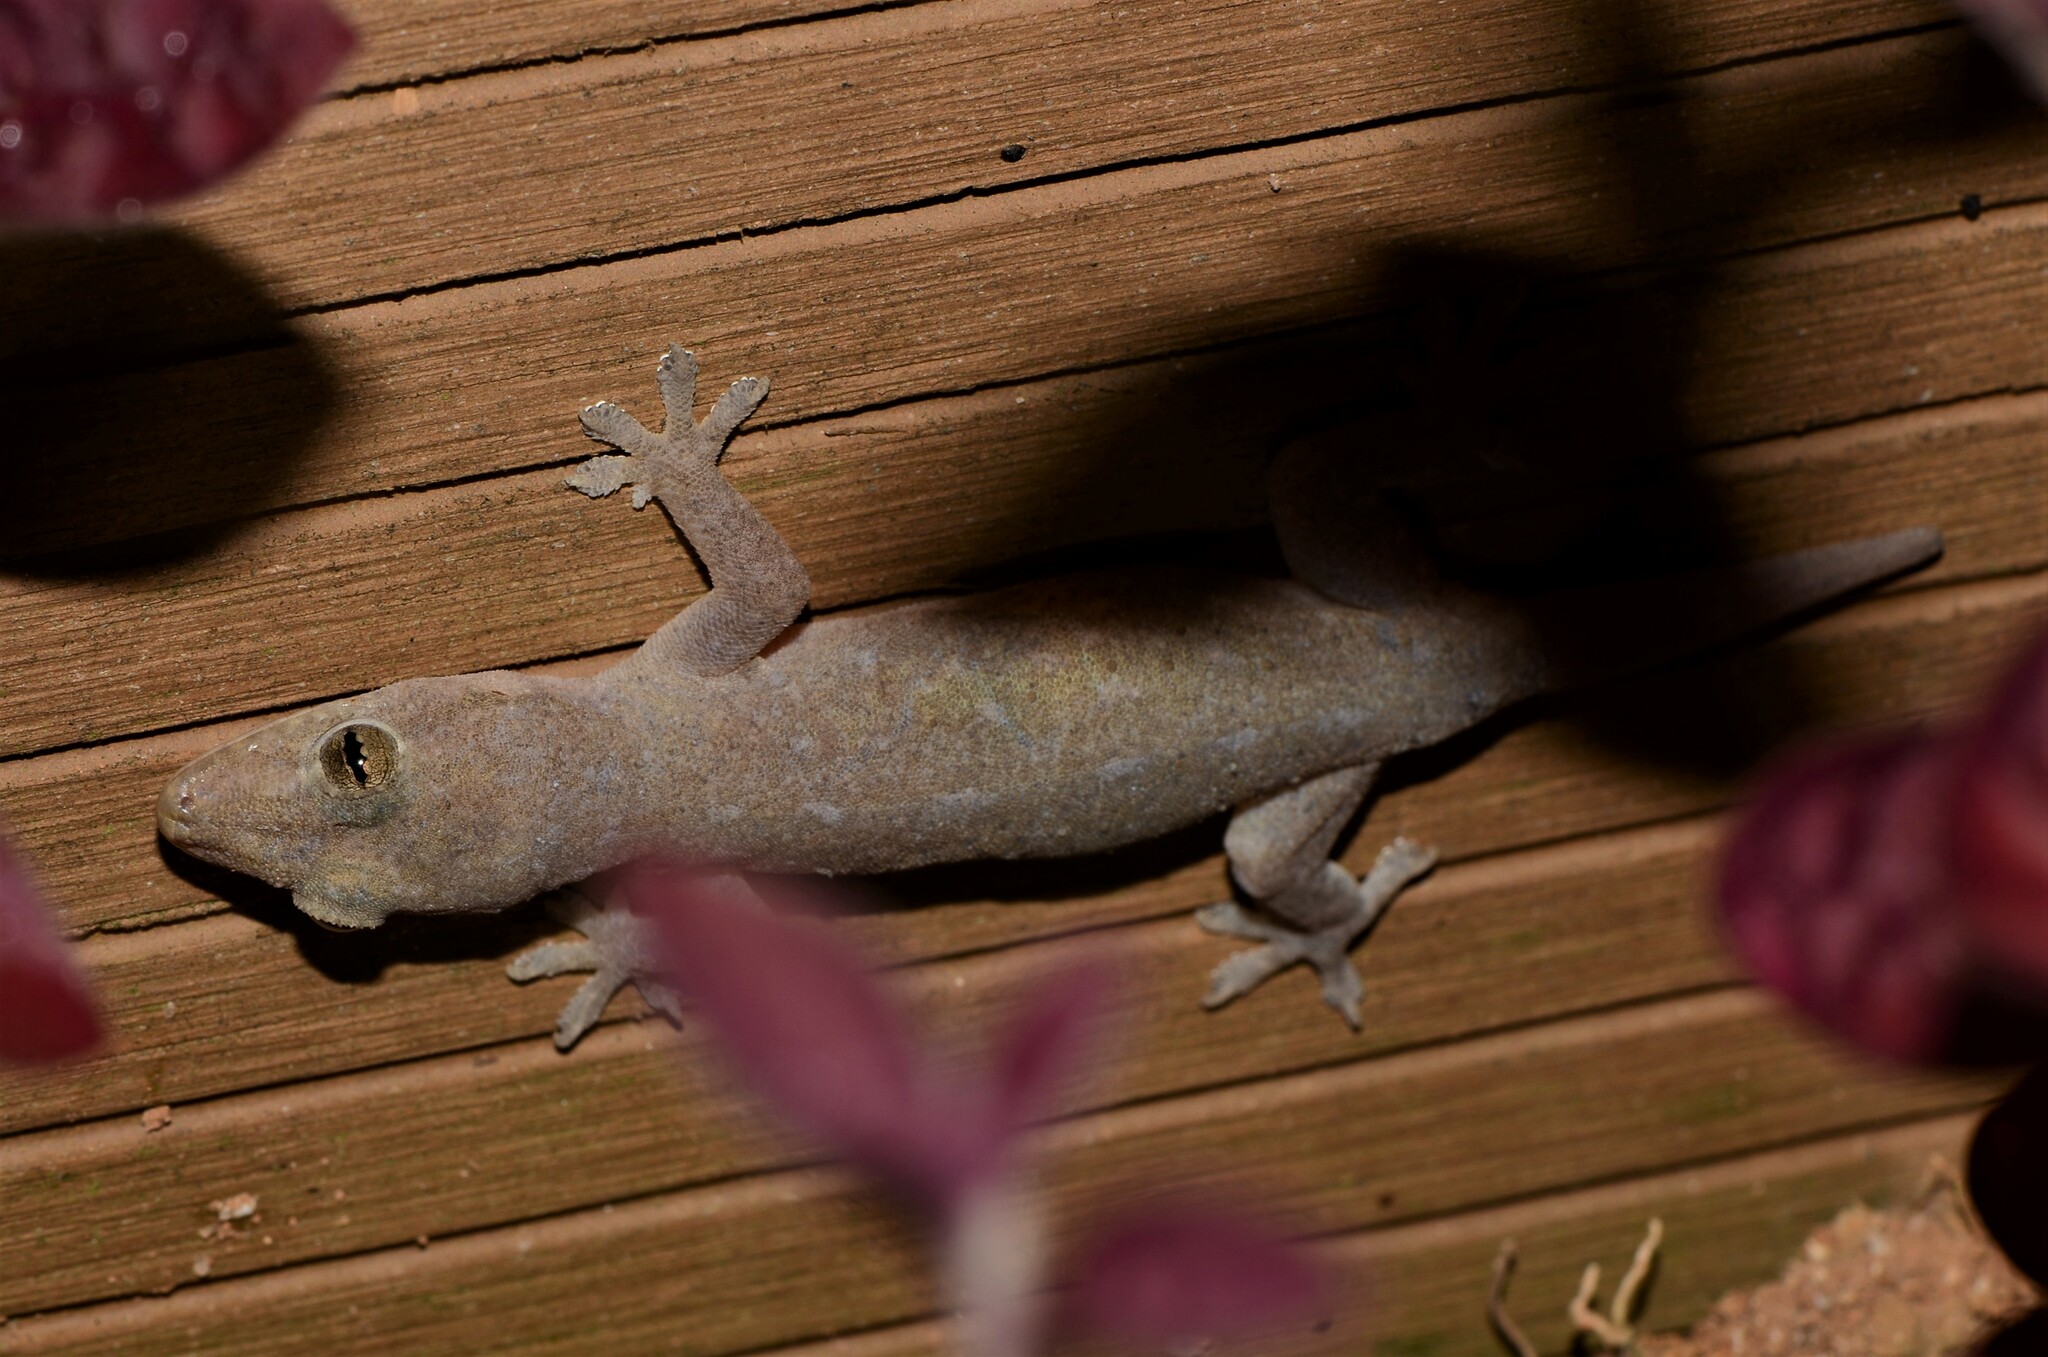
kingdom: Animalia
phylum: Chordata
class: Squamata
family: Gekkonidae
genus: Hemidactylus
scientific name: Hemidactylus frenatus
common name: Common house gecko
